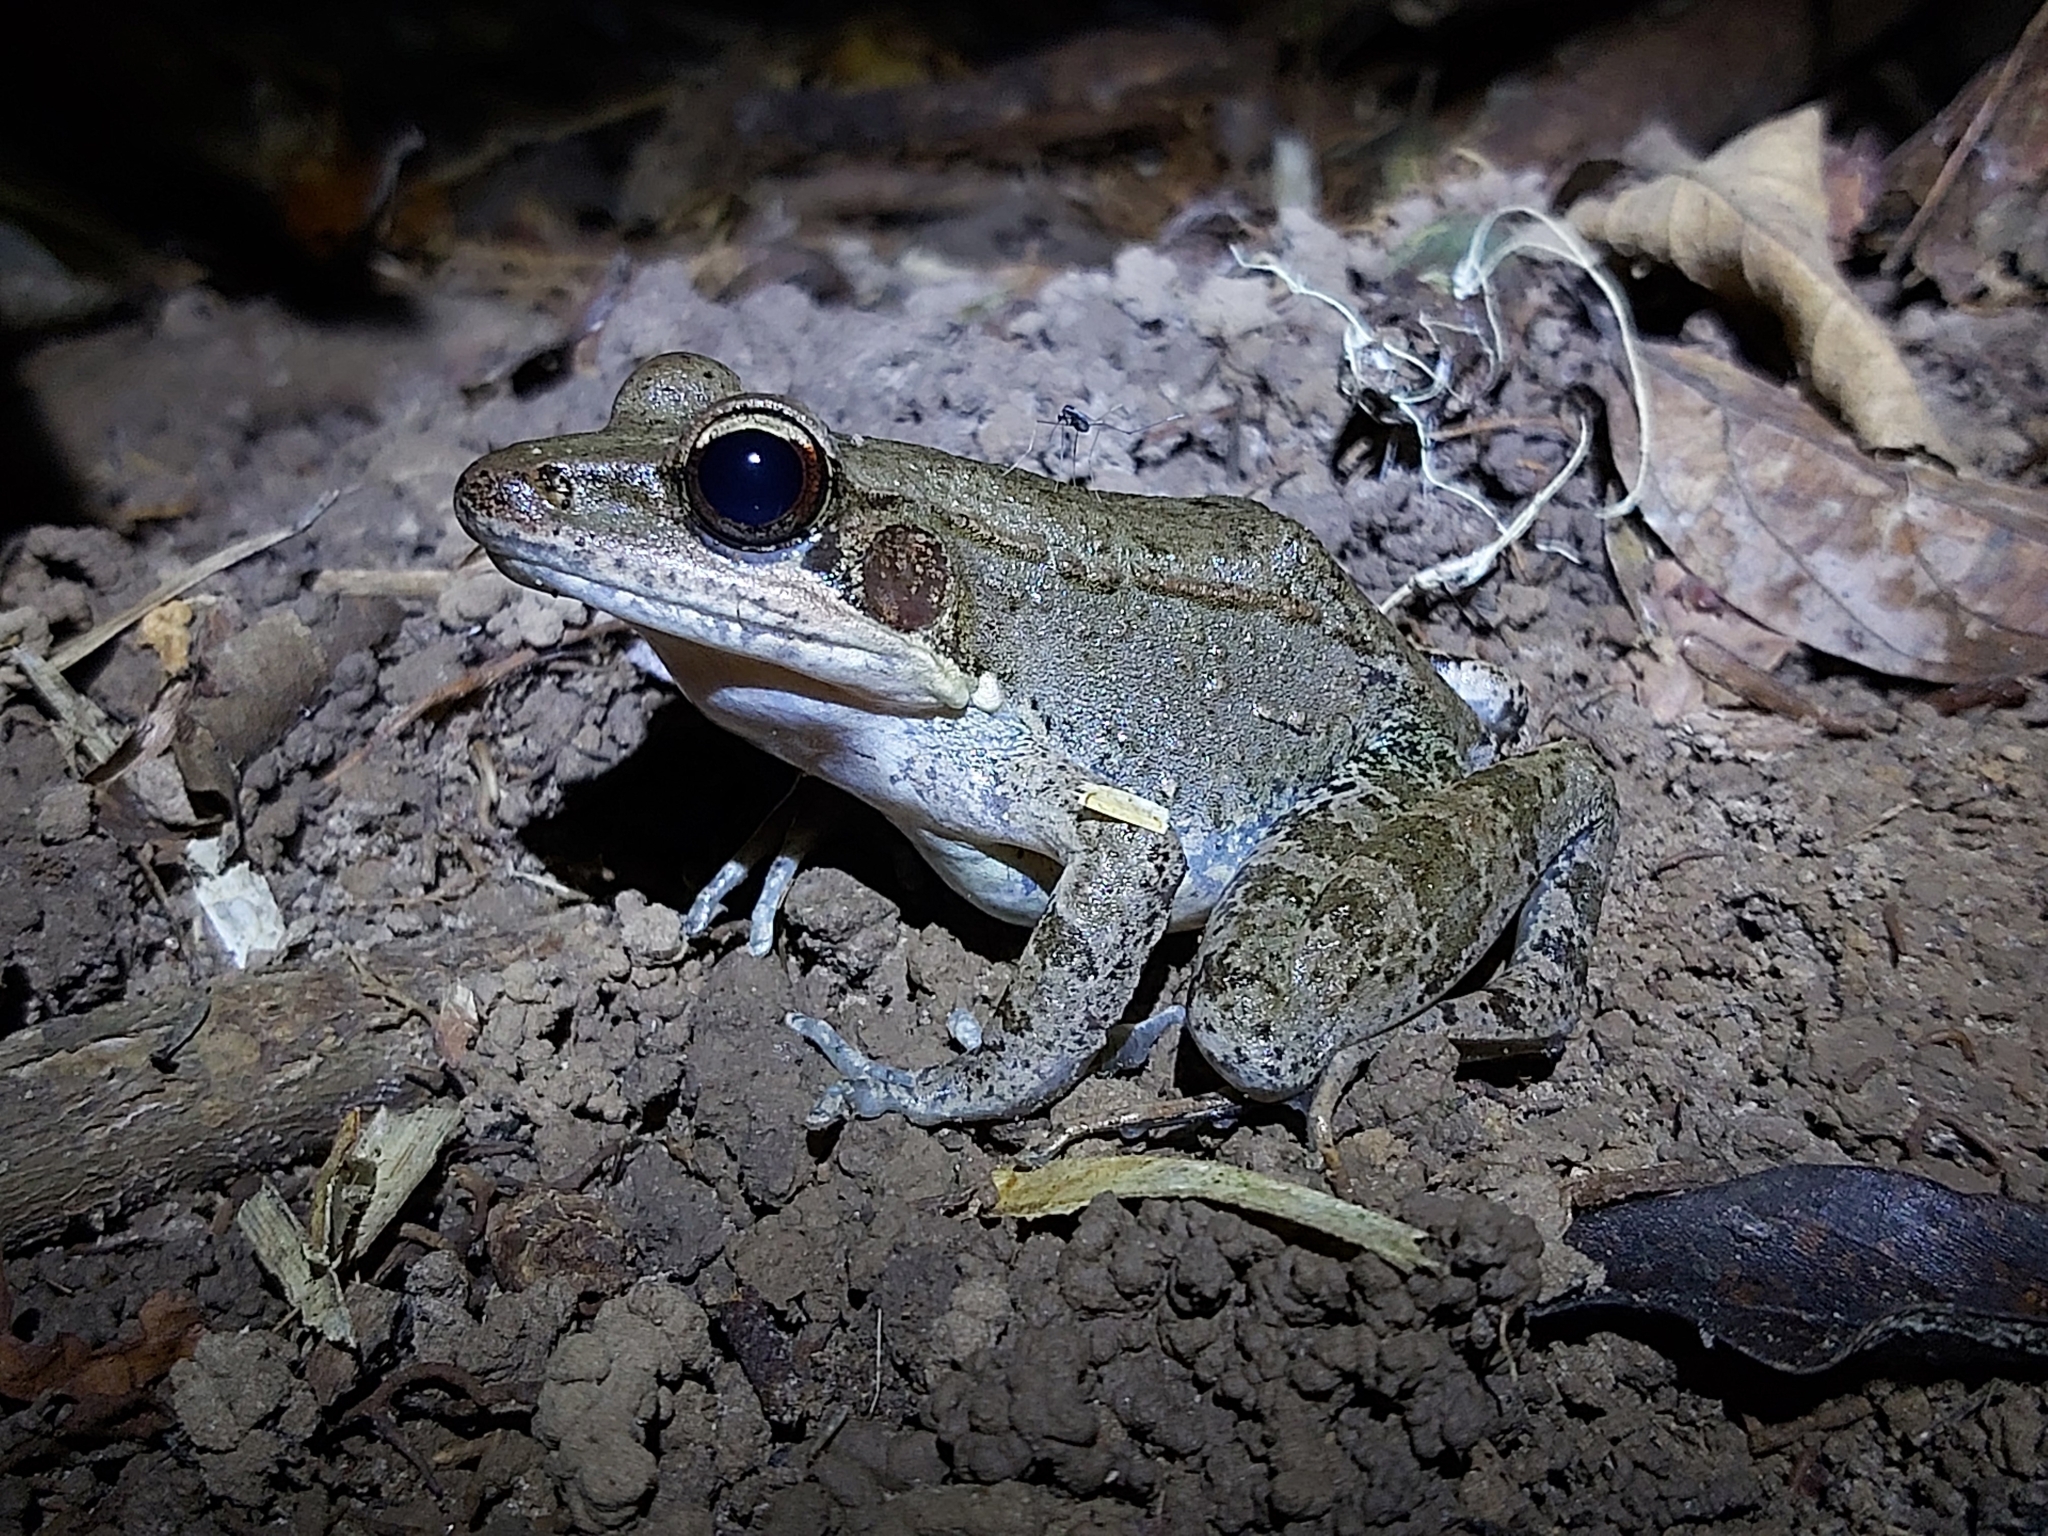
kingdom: Animalia
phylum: Chordata
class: Amphibia
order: Anura
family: Ranidae
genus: Papurana
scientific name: Papurana daemeli
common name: Arhem rana
